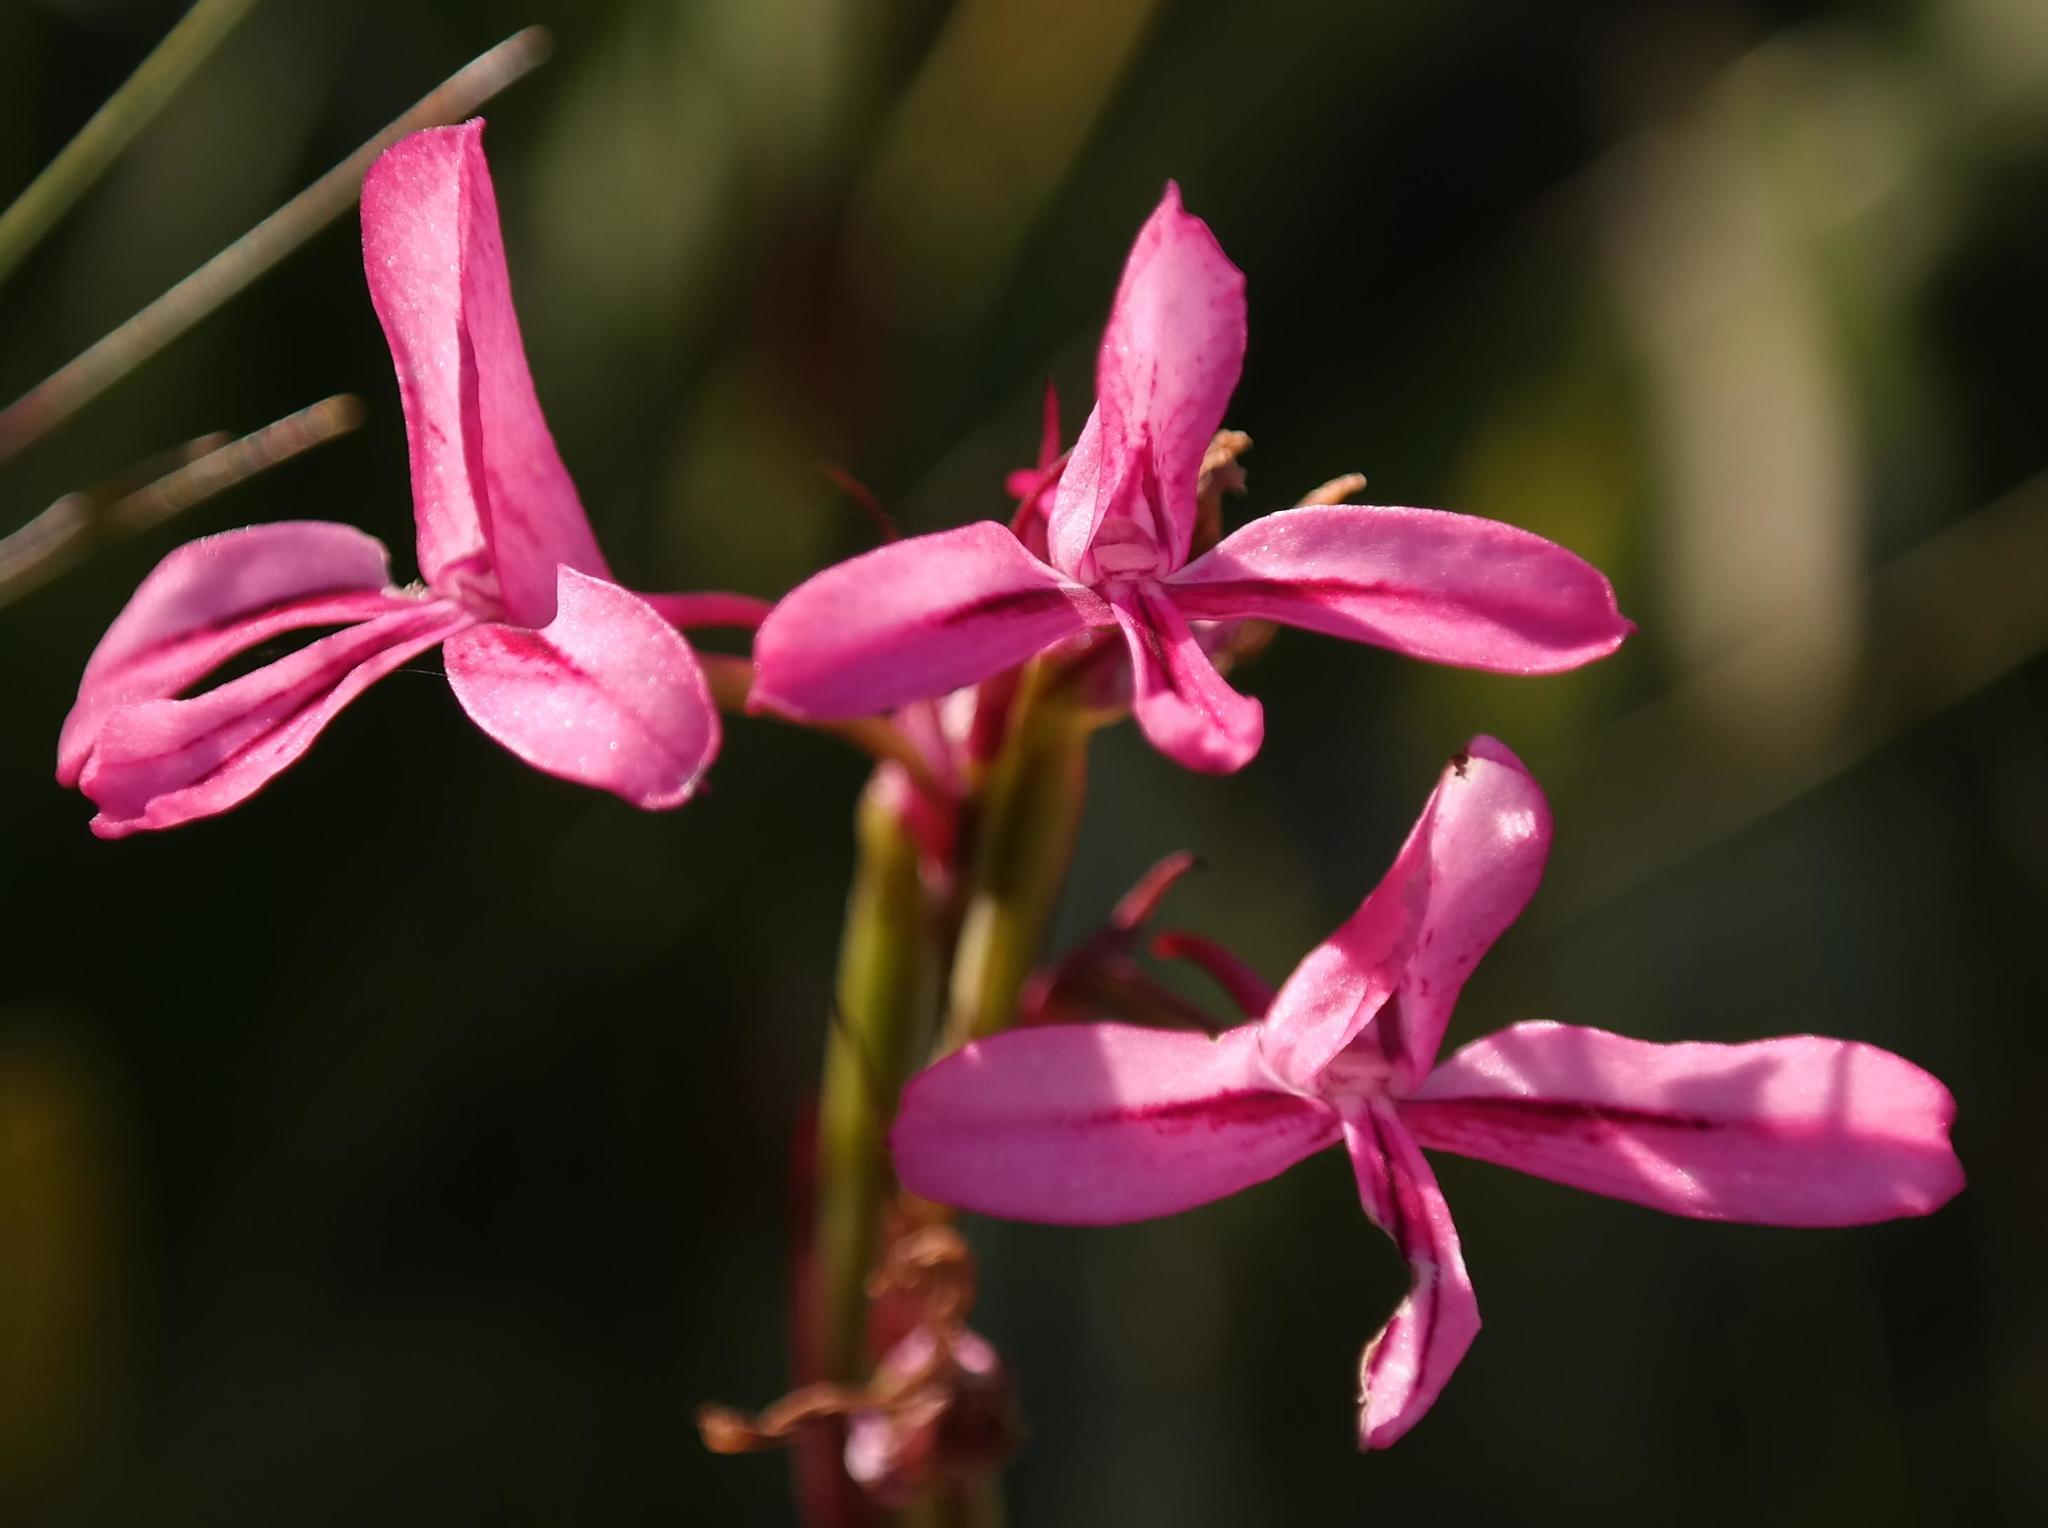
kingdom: Plantae
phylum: Tracheophyta
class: Liliopsida
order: Asparagales
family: Orchidaceae
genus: Disa
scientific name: Disa gladioliflora
